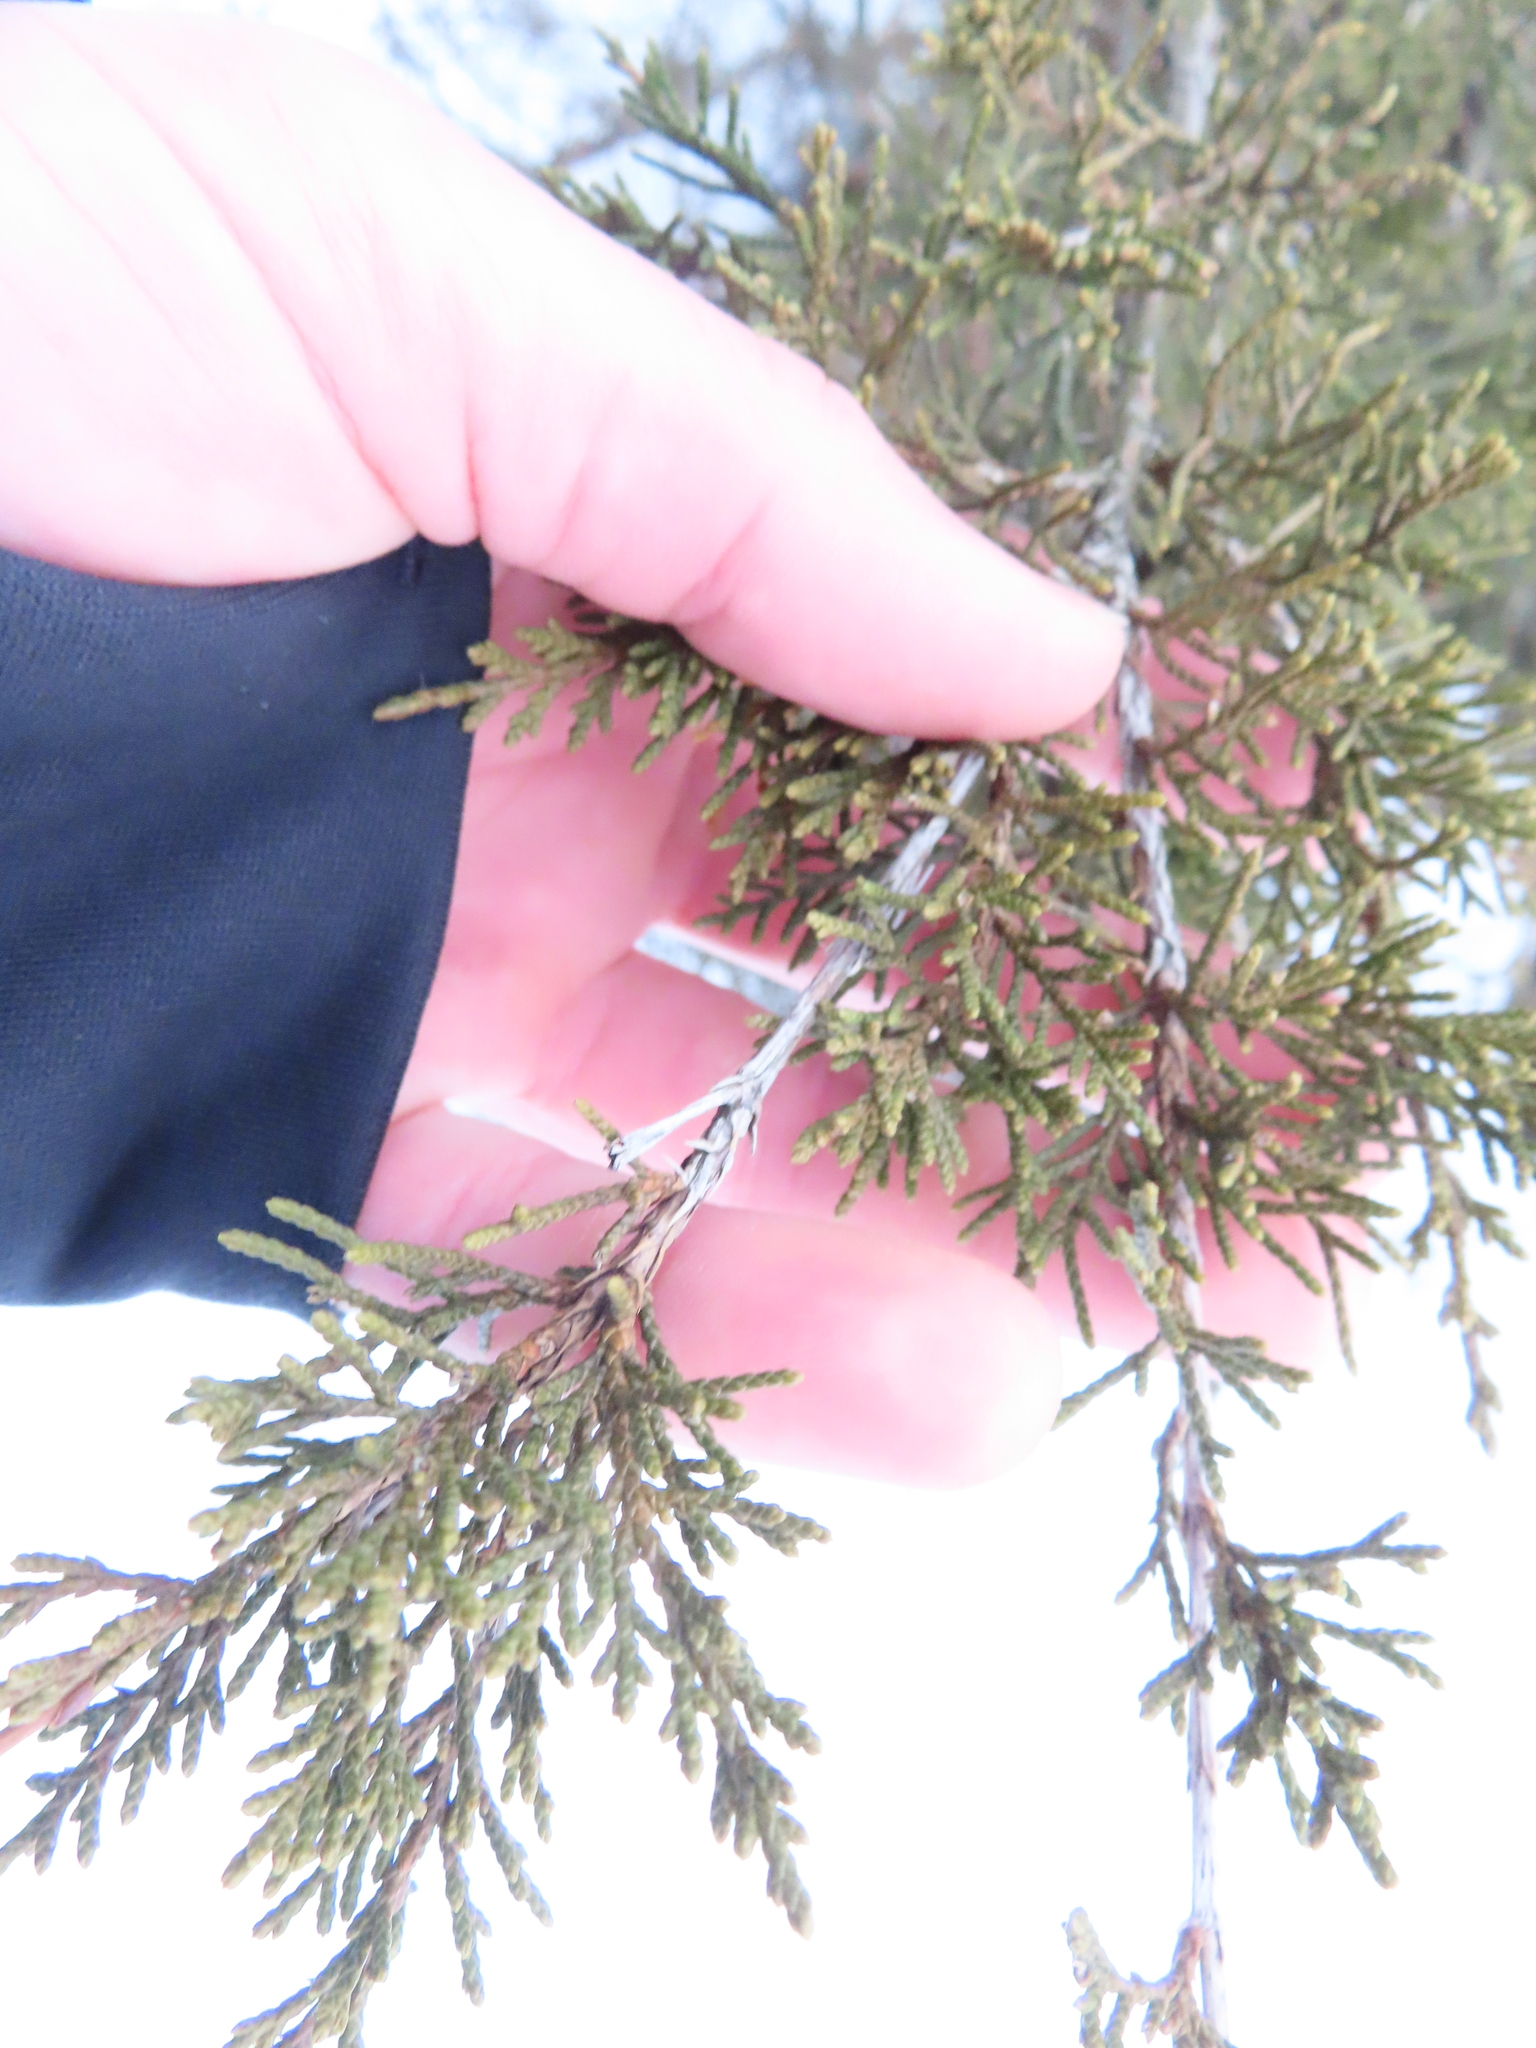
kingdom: Plantae
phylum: Tracheophyta
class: Pinopsida
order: Pinales
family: Cupressaceae
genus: Juniperus
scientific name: Juniperus virginiana
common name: Red juniper
